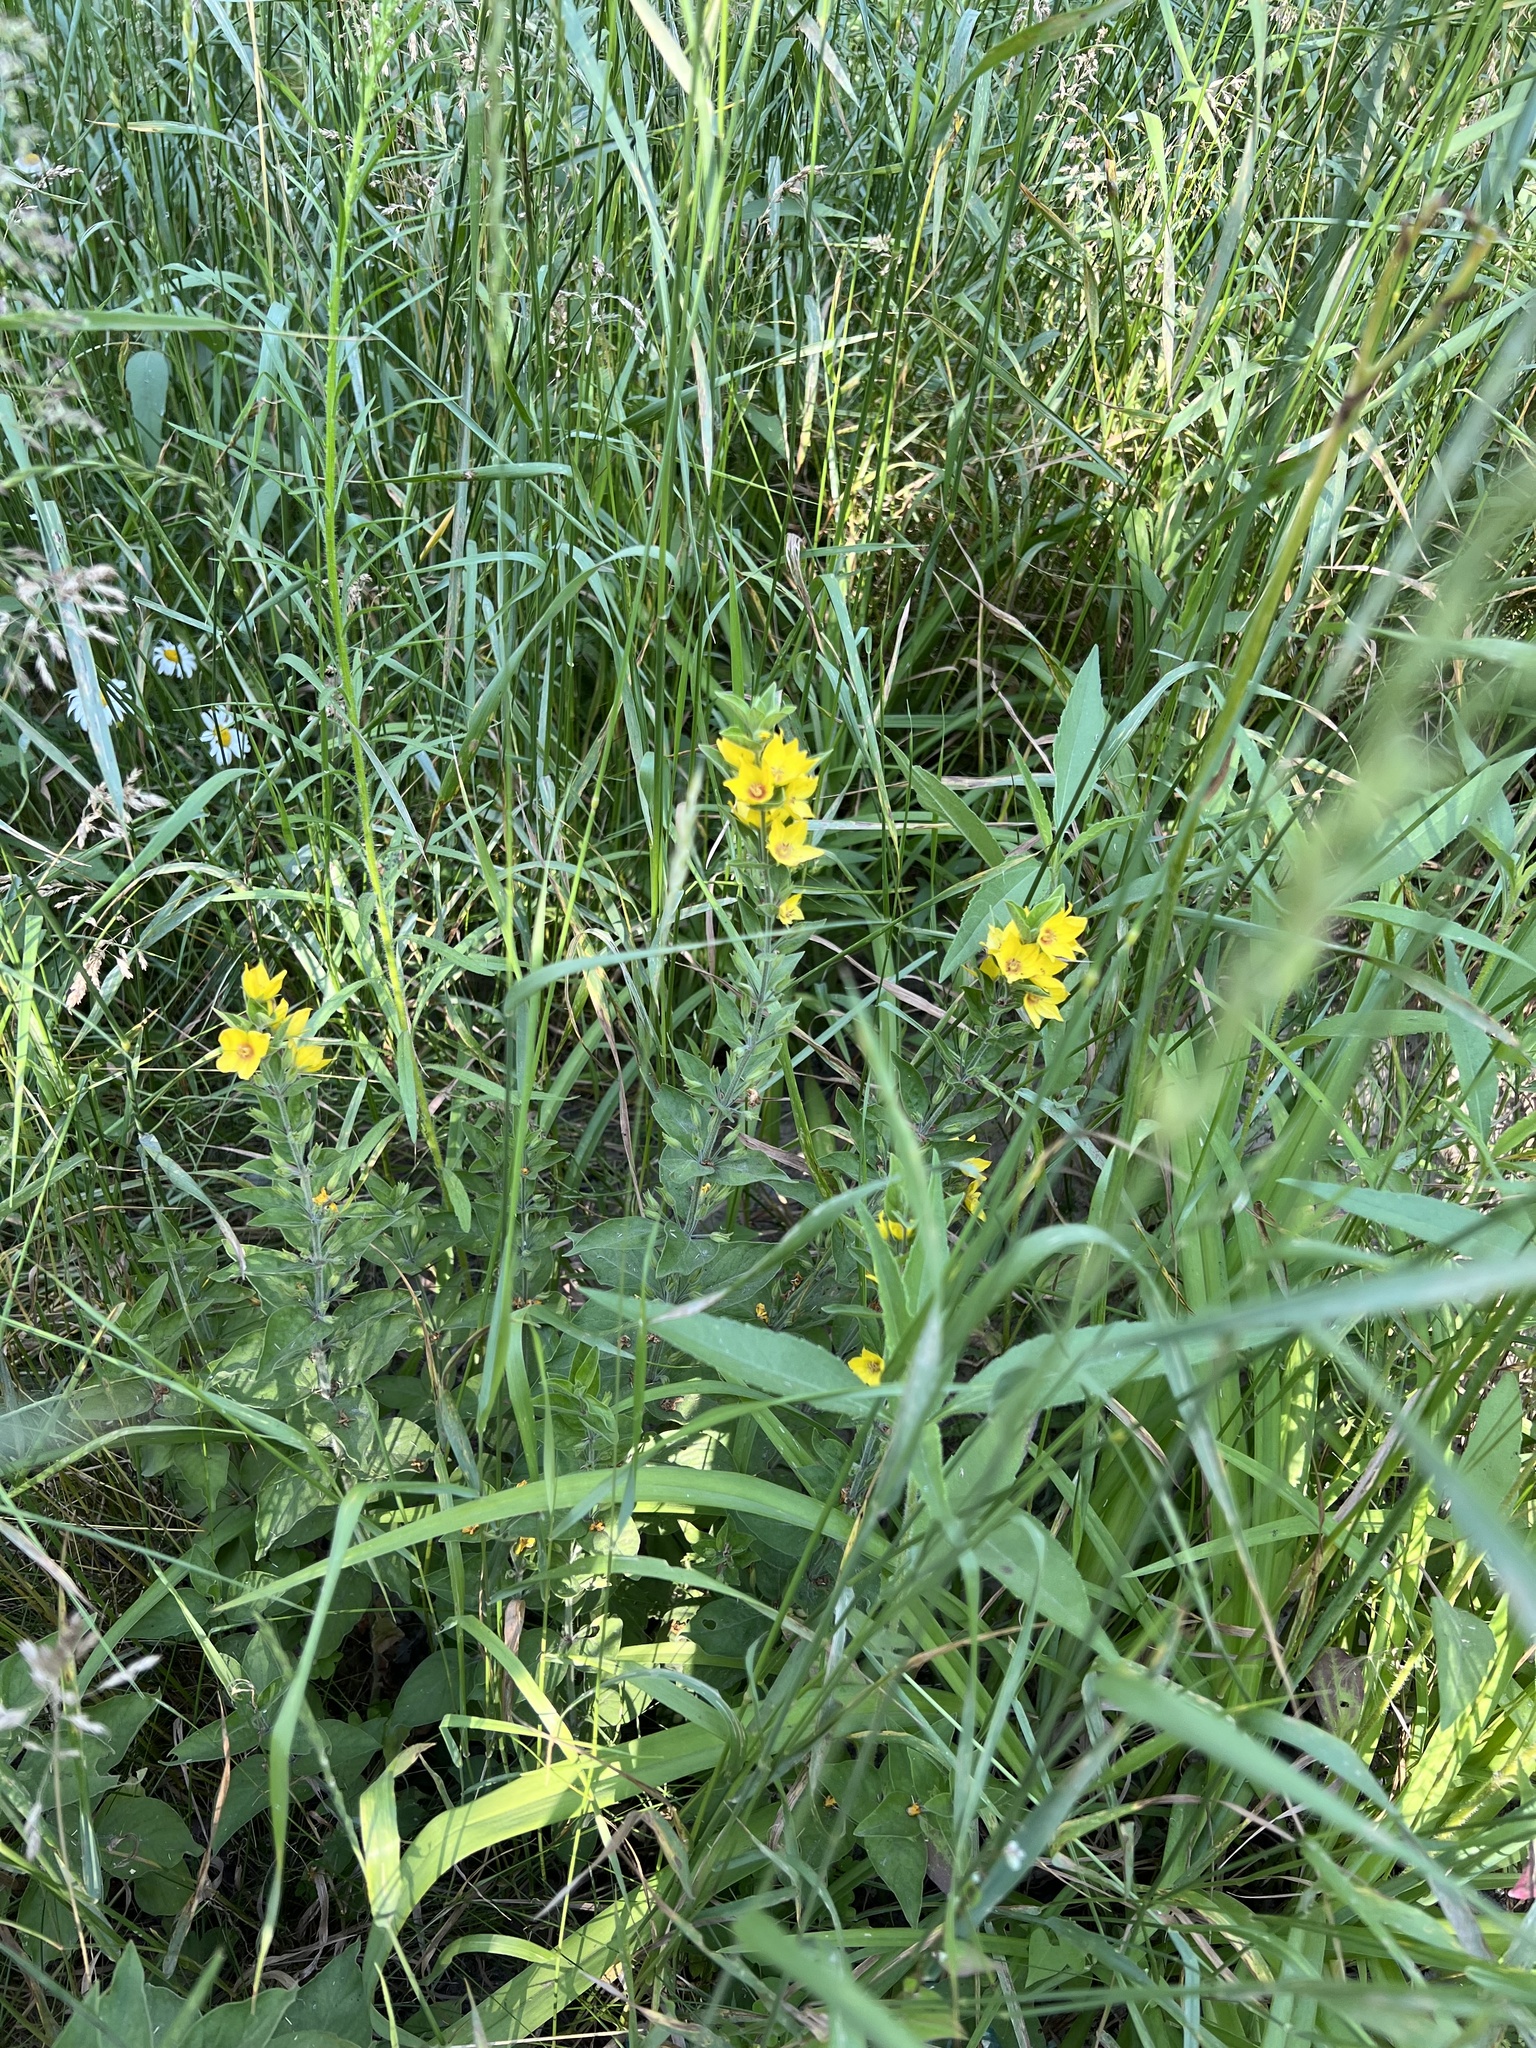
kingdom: Plantae
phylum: Tracheophyta
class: Magnoliopsida
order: Ericales
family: Primulaceae
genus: Lysimachia
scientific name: Lysimachia punctata
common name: Dotted loosestrife
